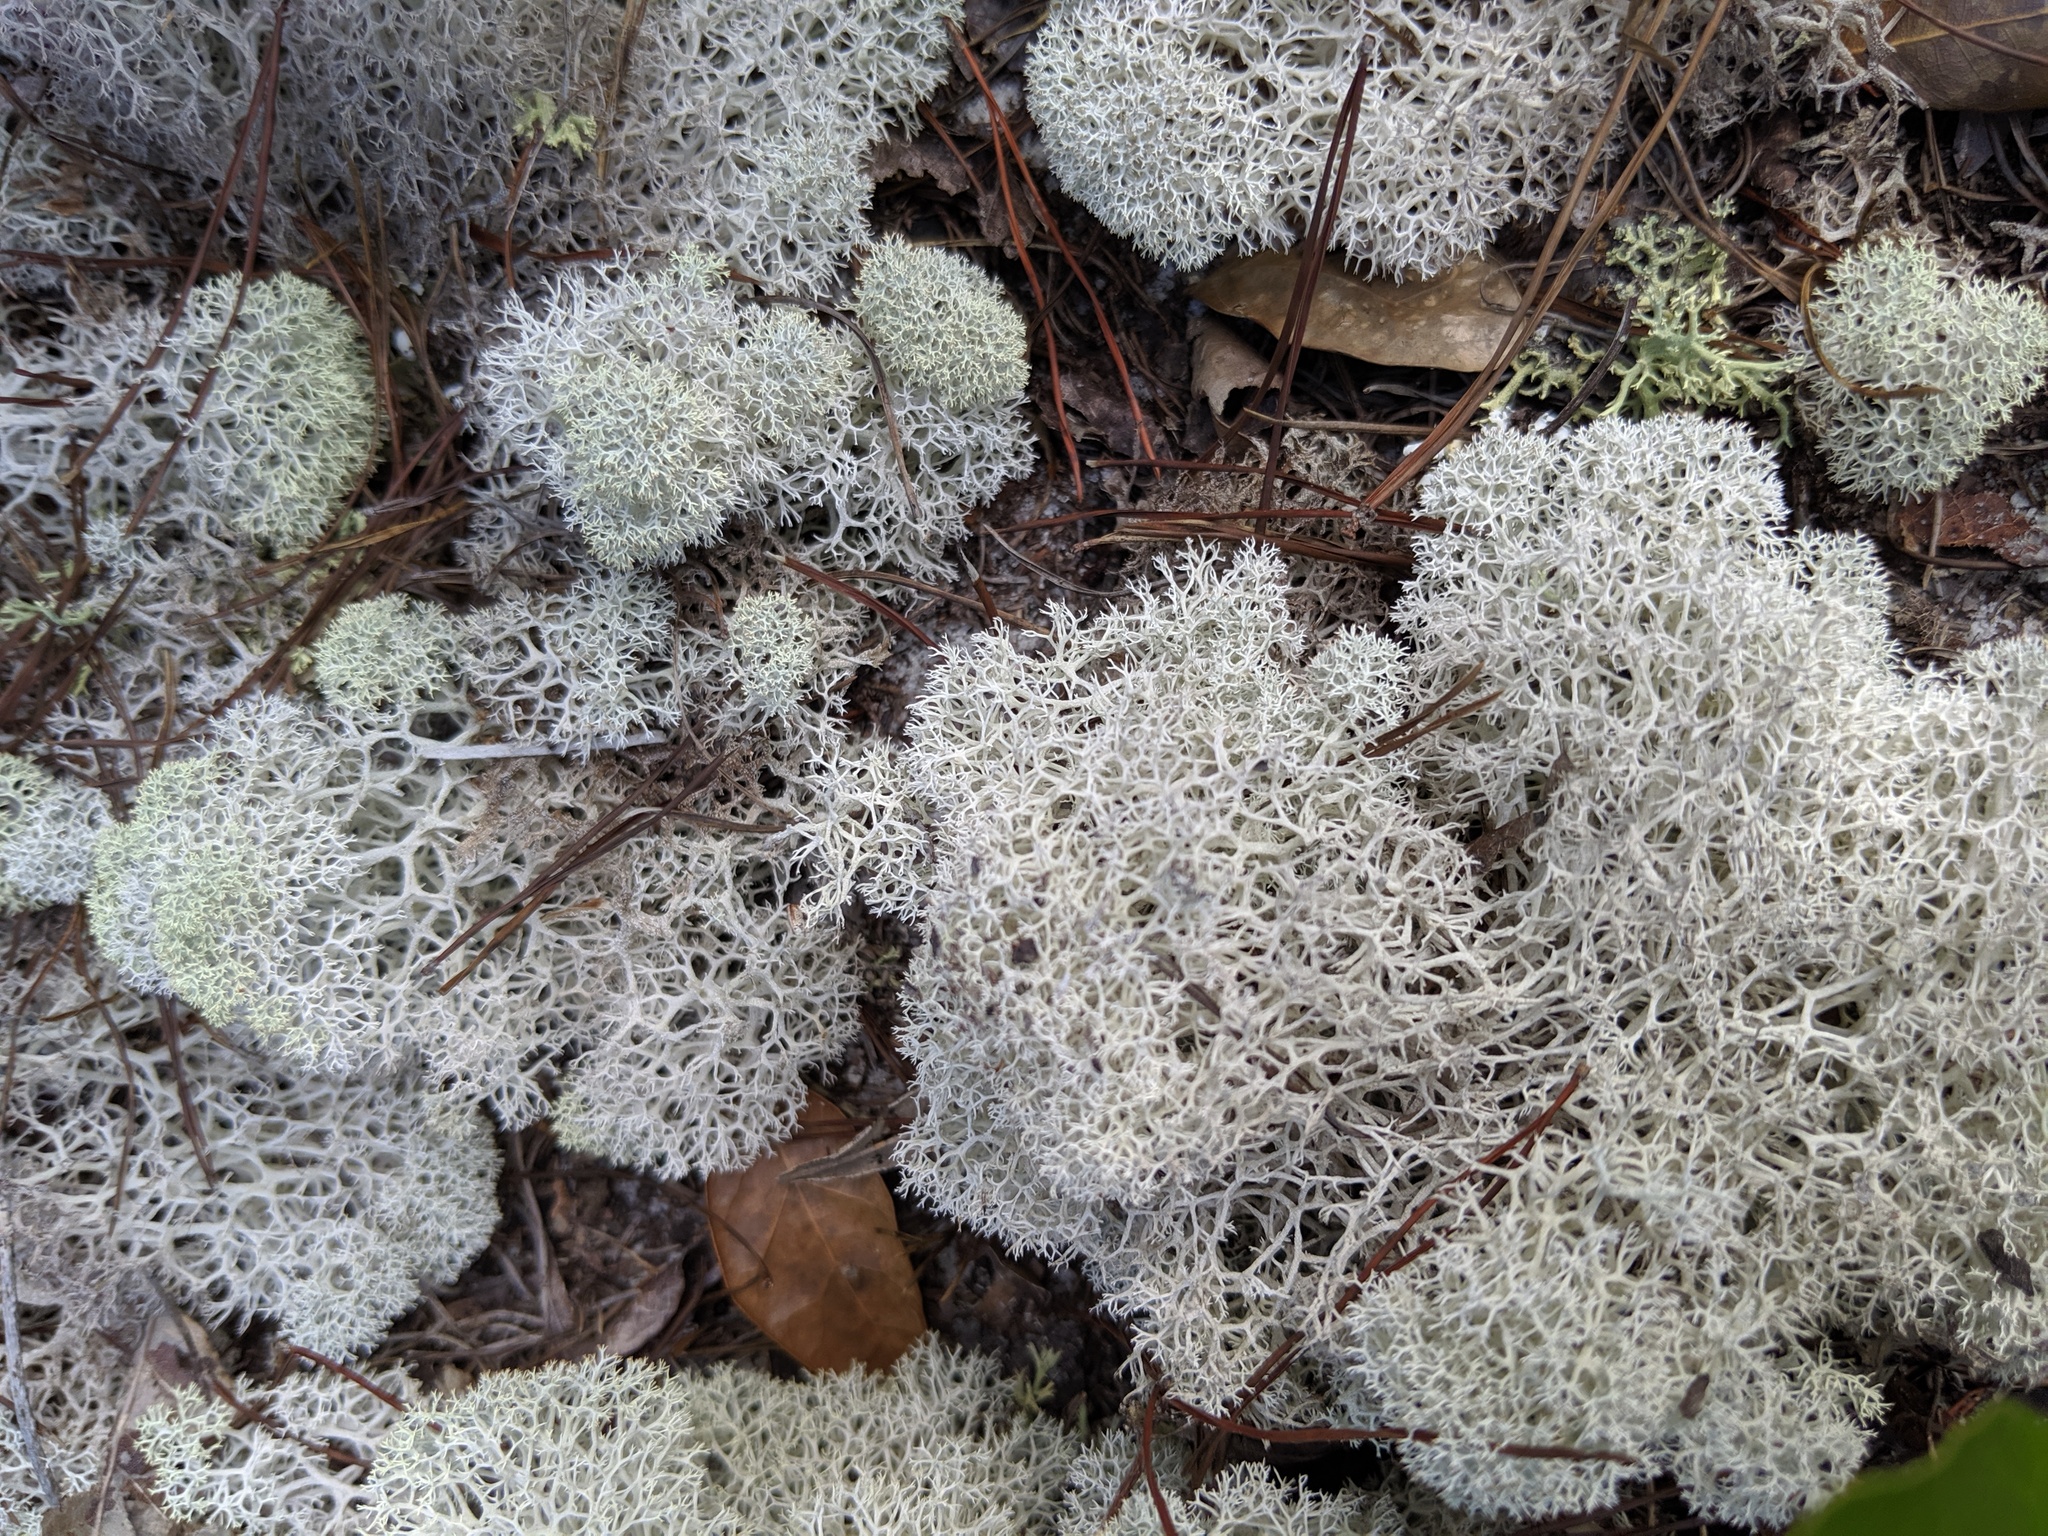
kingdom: Fungi
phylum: Ascomycota
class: Lecanoromycetes
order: Lecanorales
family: Cladoniaceae
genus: Cladonia
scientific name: Cladonia evansii
